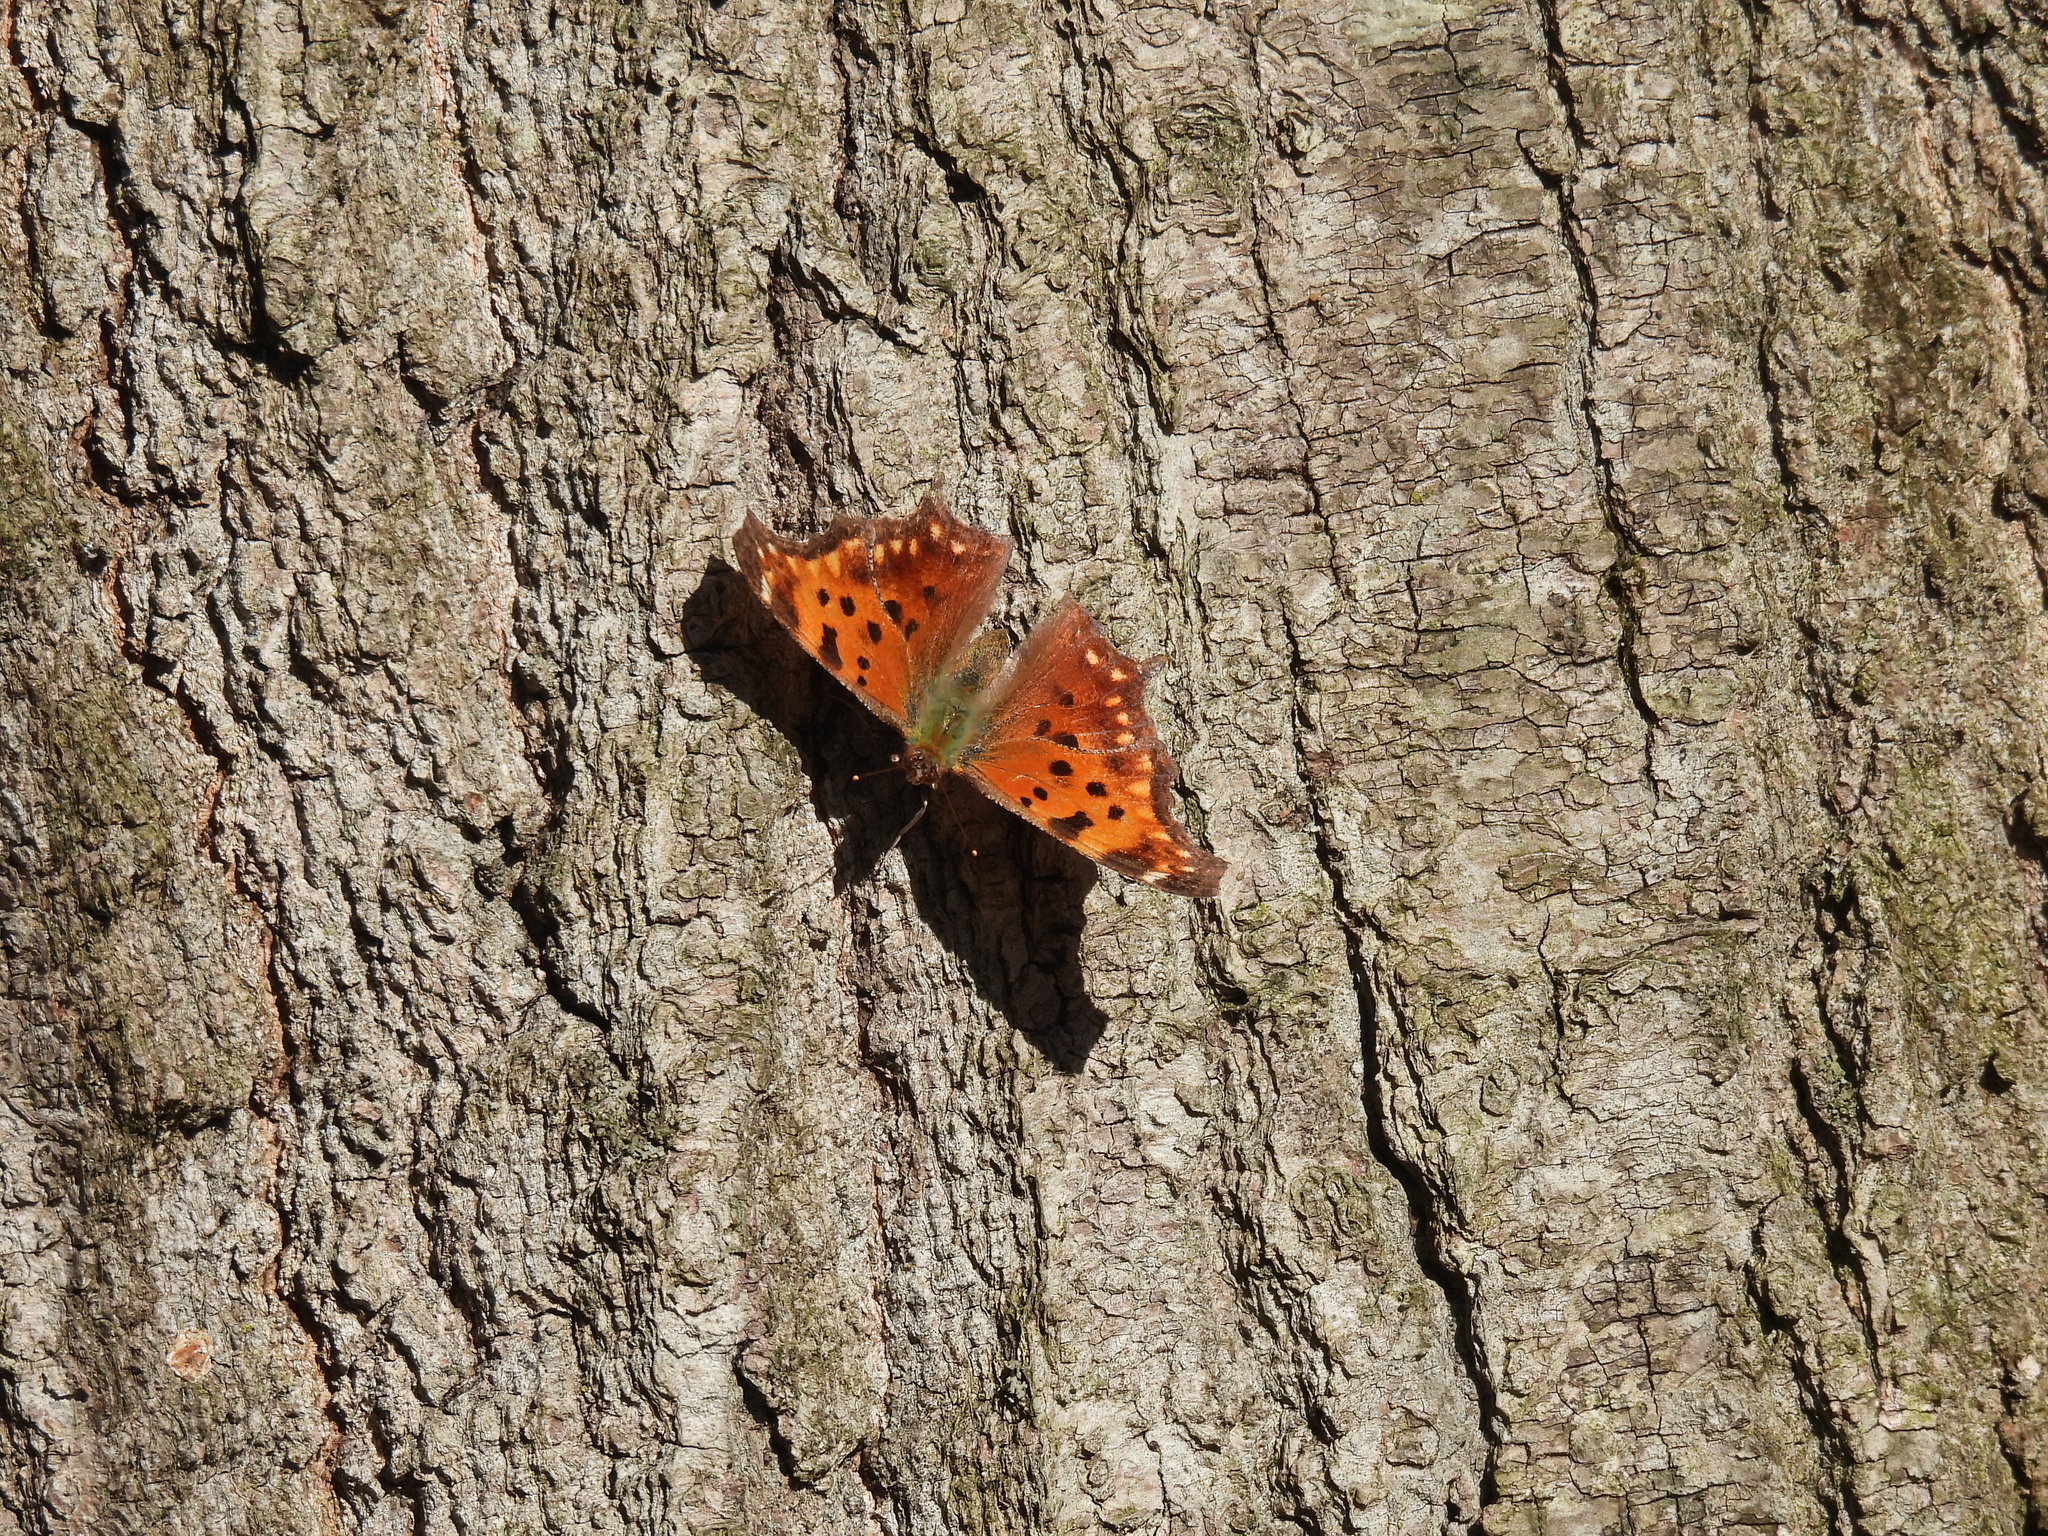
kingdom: Animalia
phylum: Arthropoda
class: Insecta
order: Lepidoptera
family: Nymphalidae
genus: Polygonia
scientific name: Polygonia comma
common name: Eastern comma
